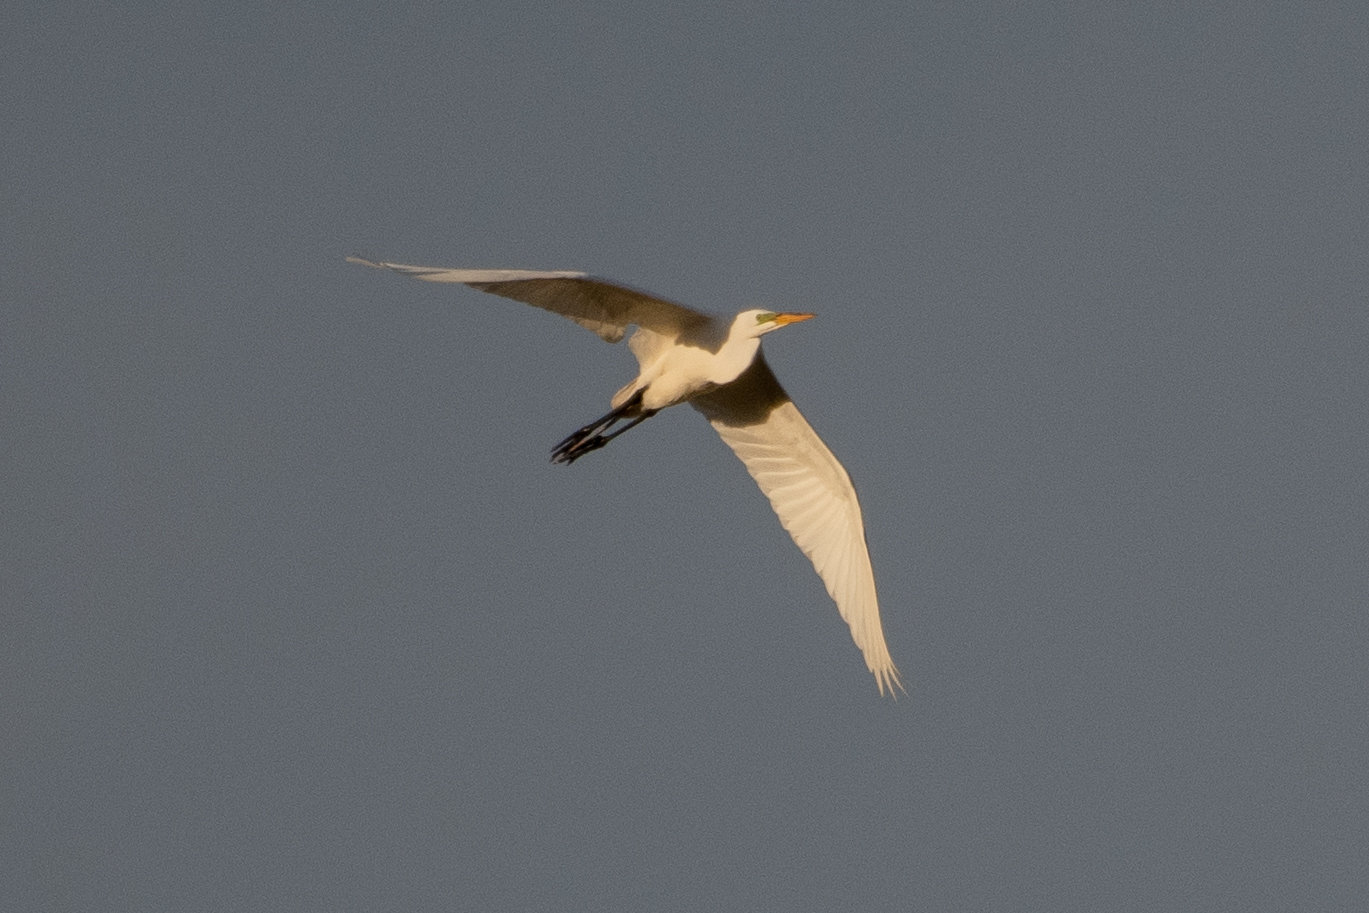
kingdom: Animalia
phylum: Chordata
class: Aves
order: Pelecaniformes
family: Ardeidae
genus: Ardea
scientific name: Ardea alba
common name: Great egret
